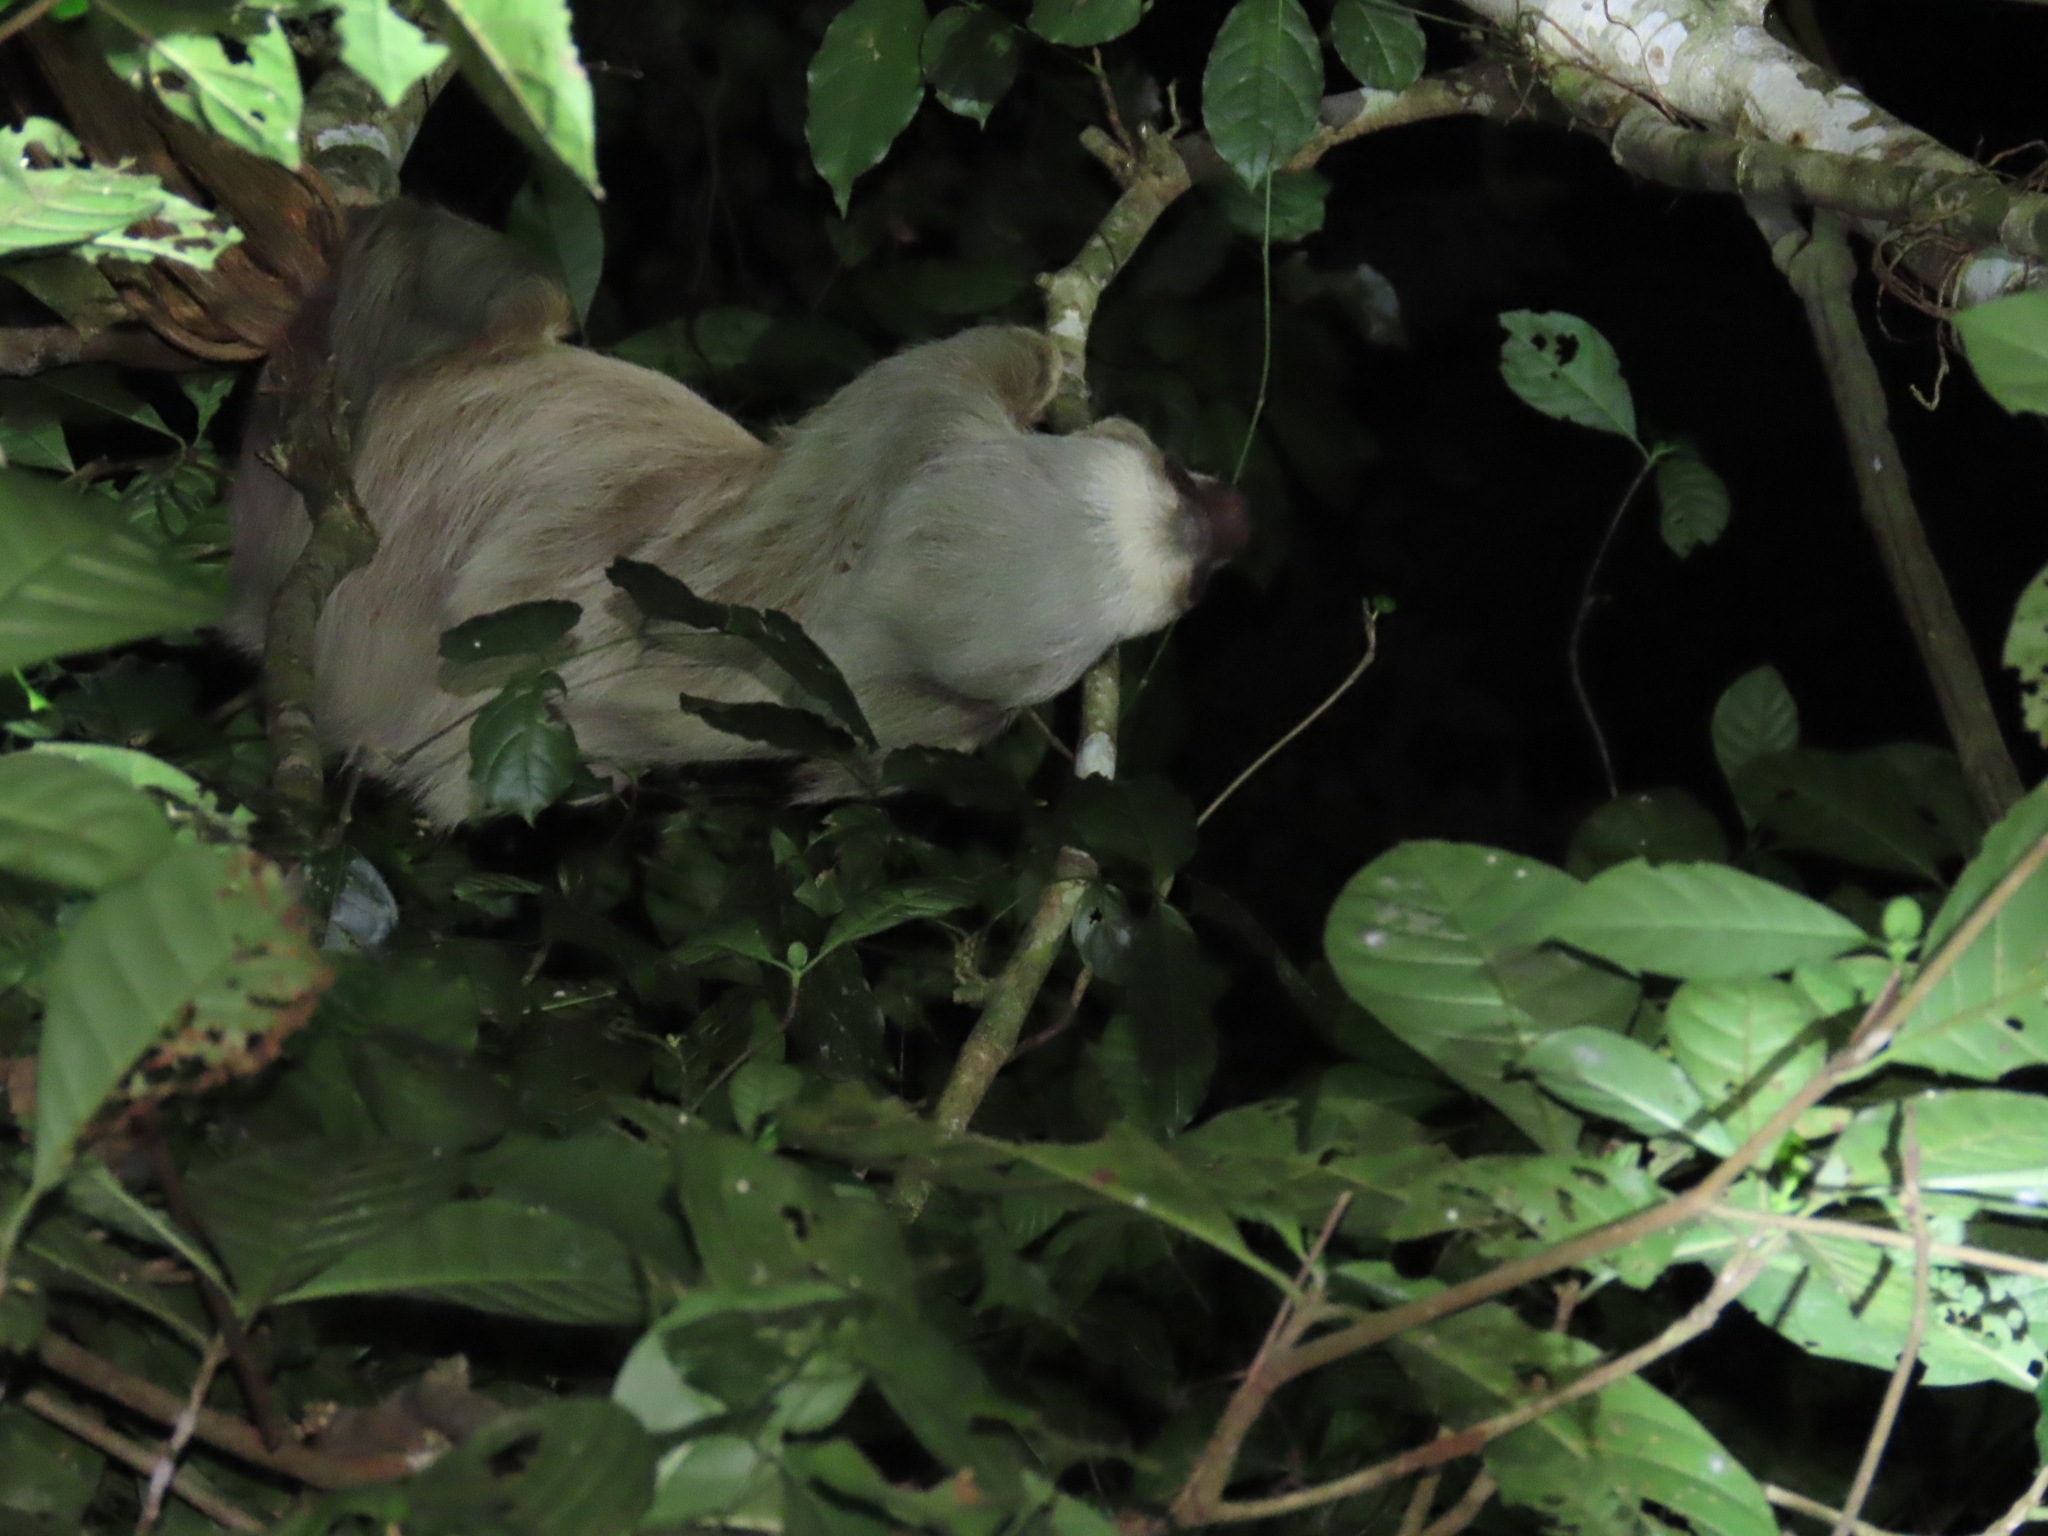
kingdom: Animalia
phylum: Chordata
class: Mammalia
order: Pilosa
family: Megalonychidae
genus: Choloepus
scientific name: Choloepus hoffmanni
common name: Hoffmann's two-toed sloth
